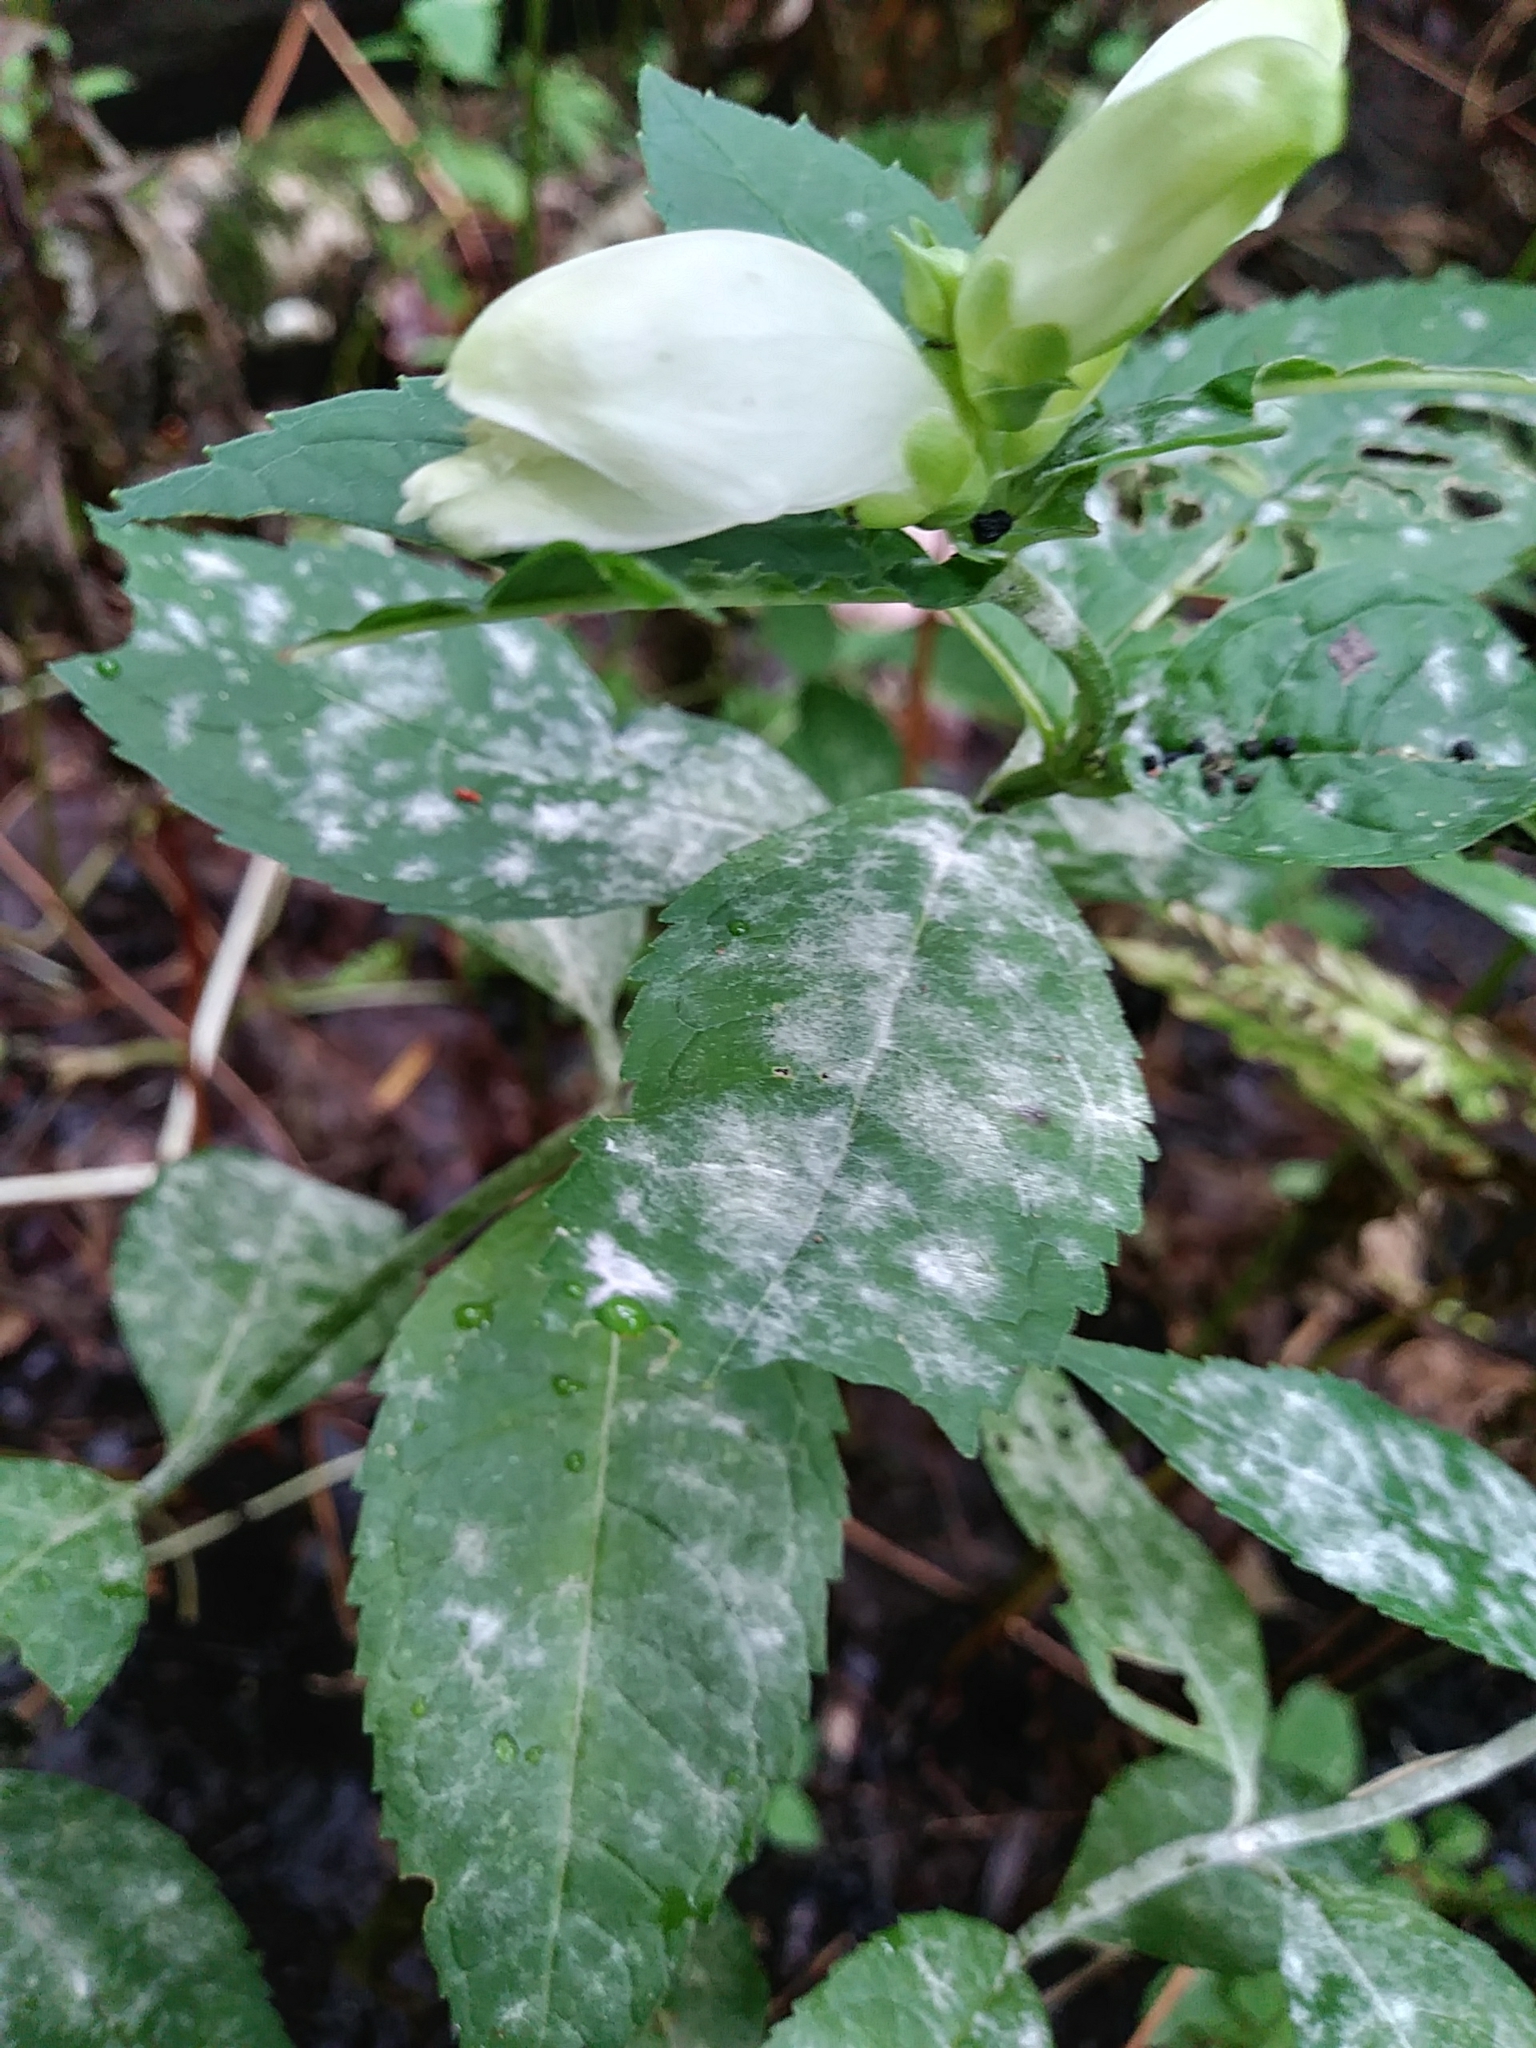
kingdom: Plantae
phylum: Tracheophyta
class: Magnoliopsida
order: Lamiales
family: Plantaginaceae
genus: Chelone
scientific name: Chelone glabra
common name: Snakehead
